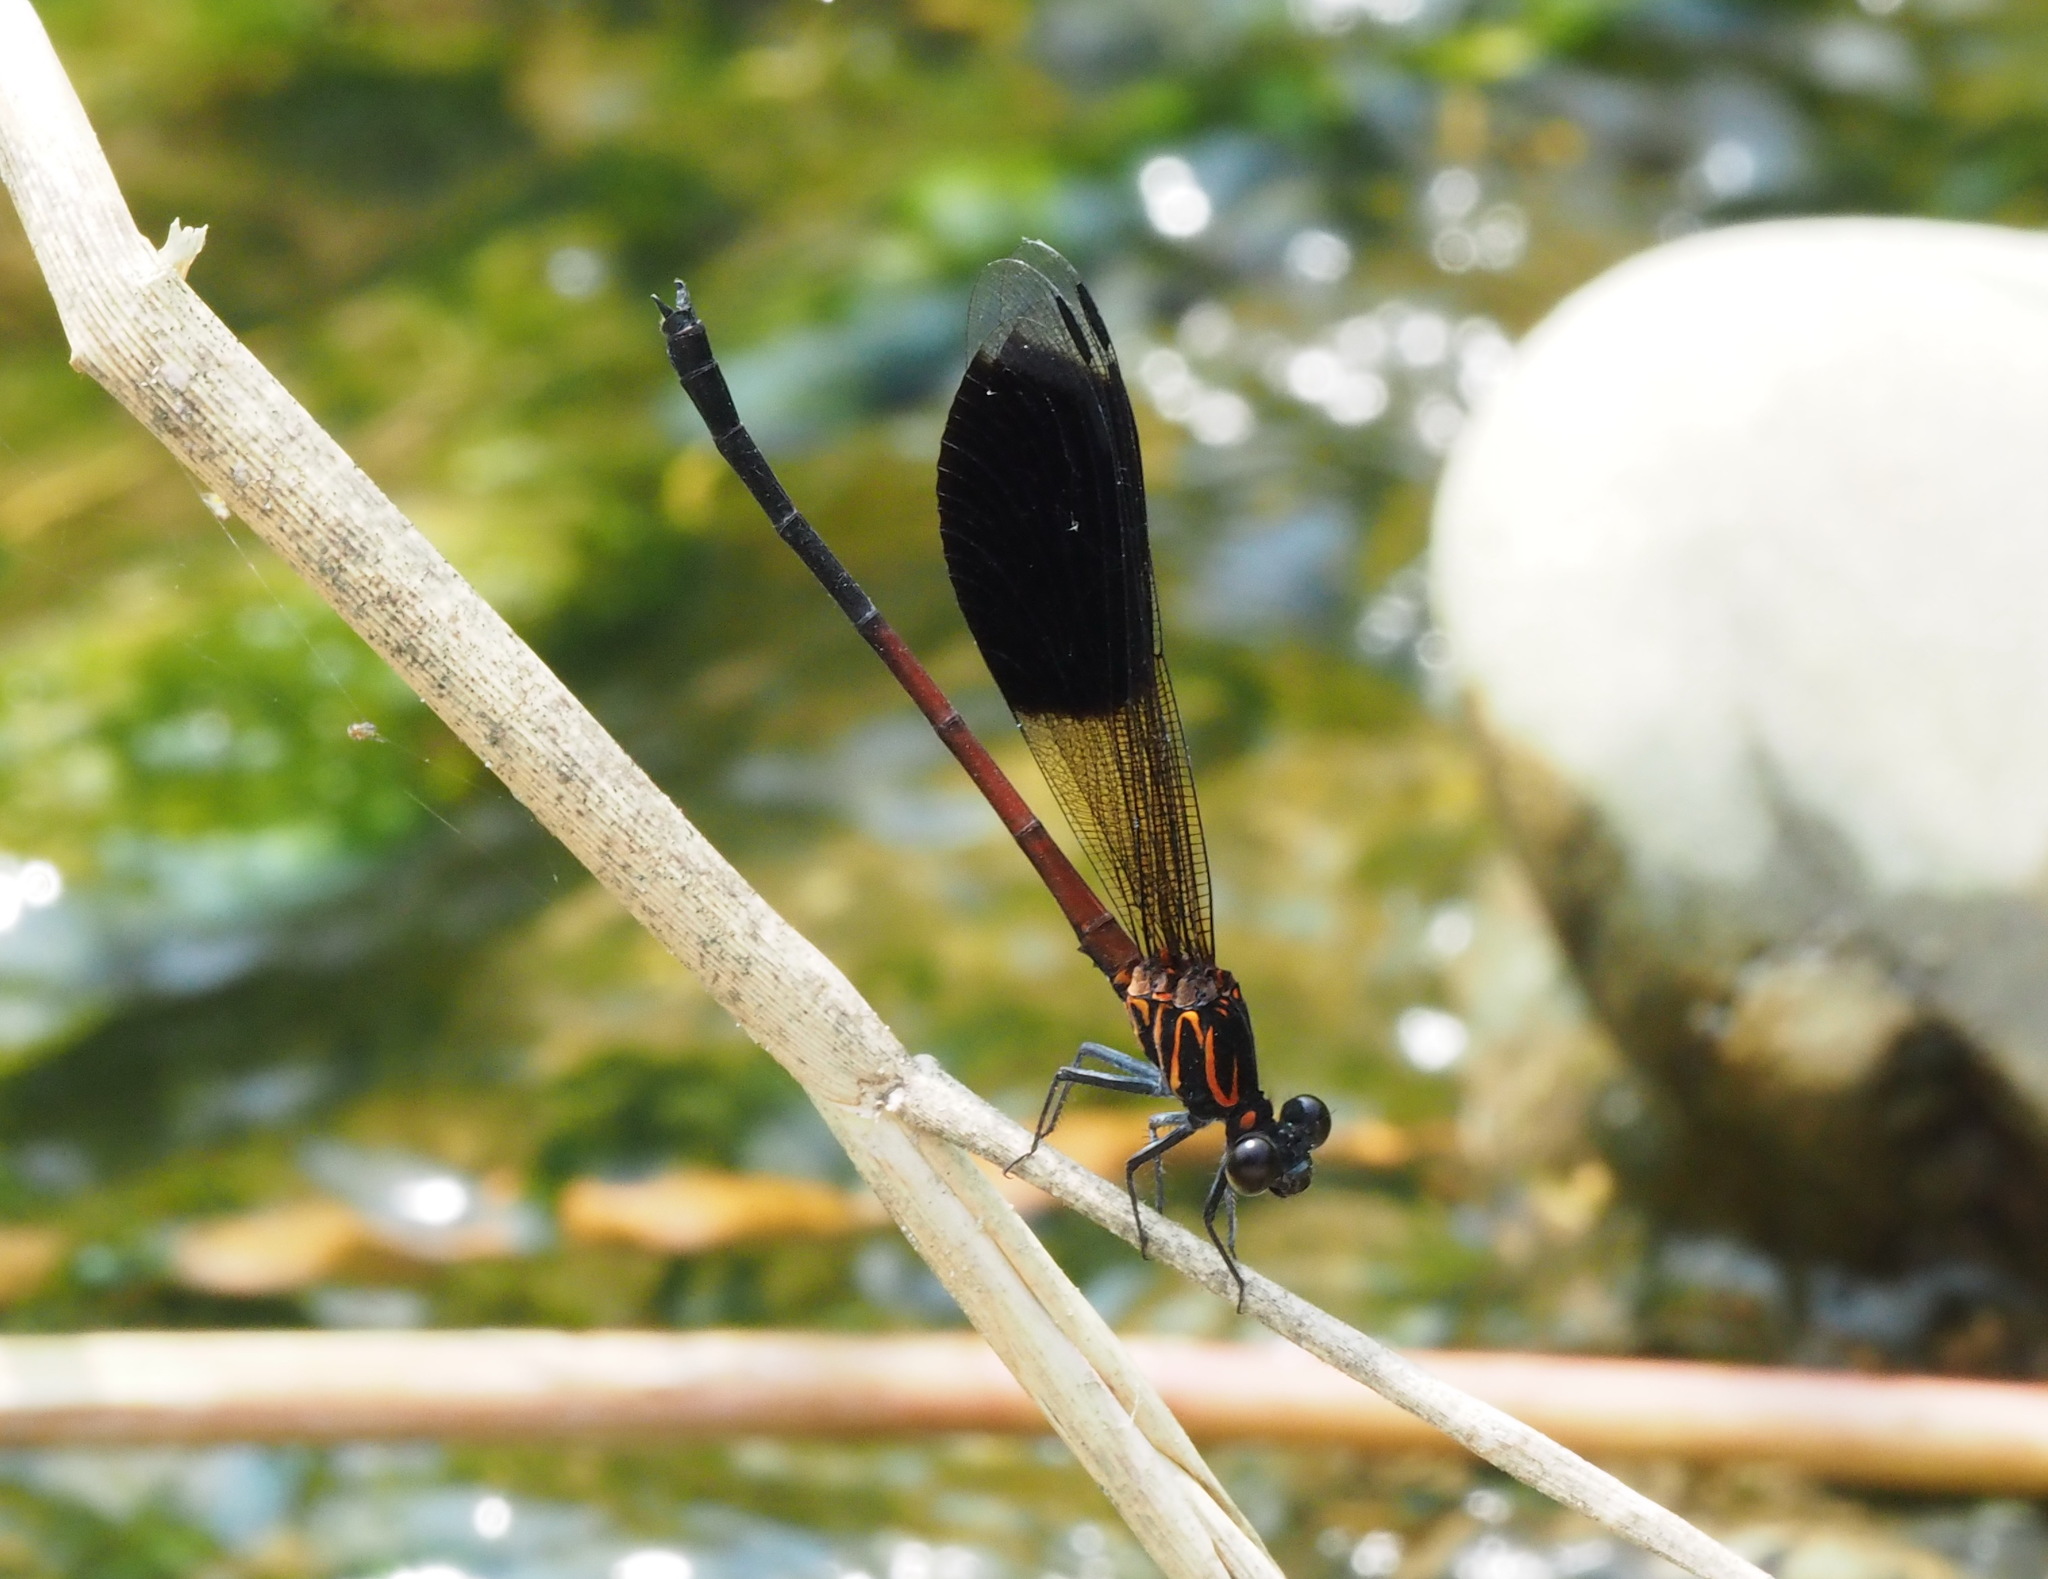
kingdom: Animalia
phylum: Arthropoda
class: Insecta
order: Odonata
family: Euphaeidae
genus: Euphaea
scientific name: Euphaea formosa
